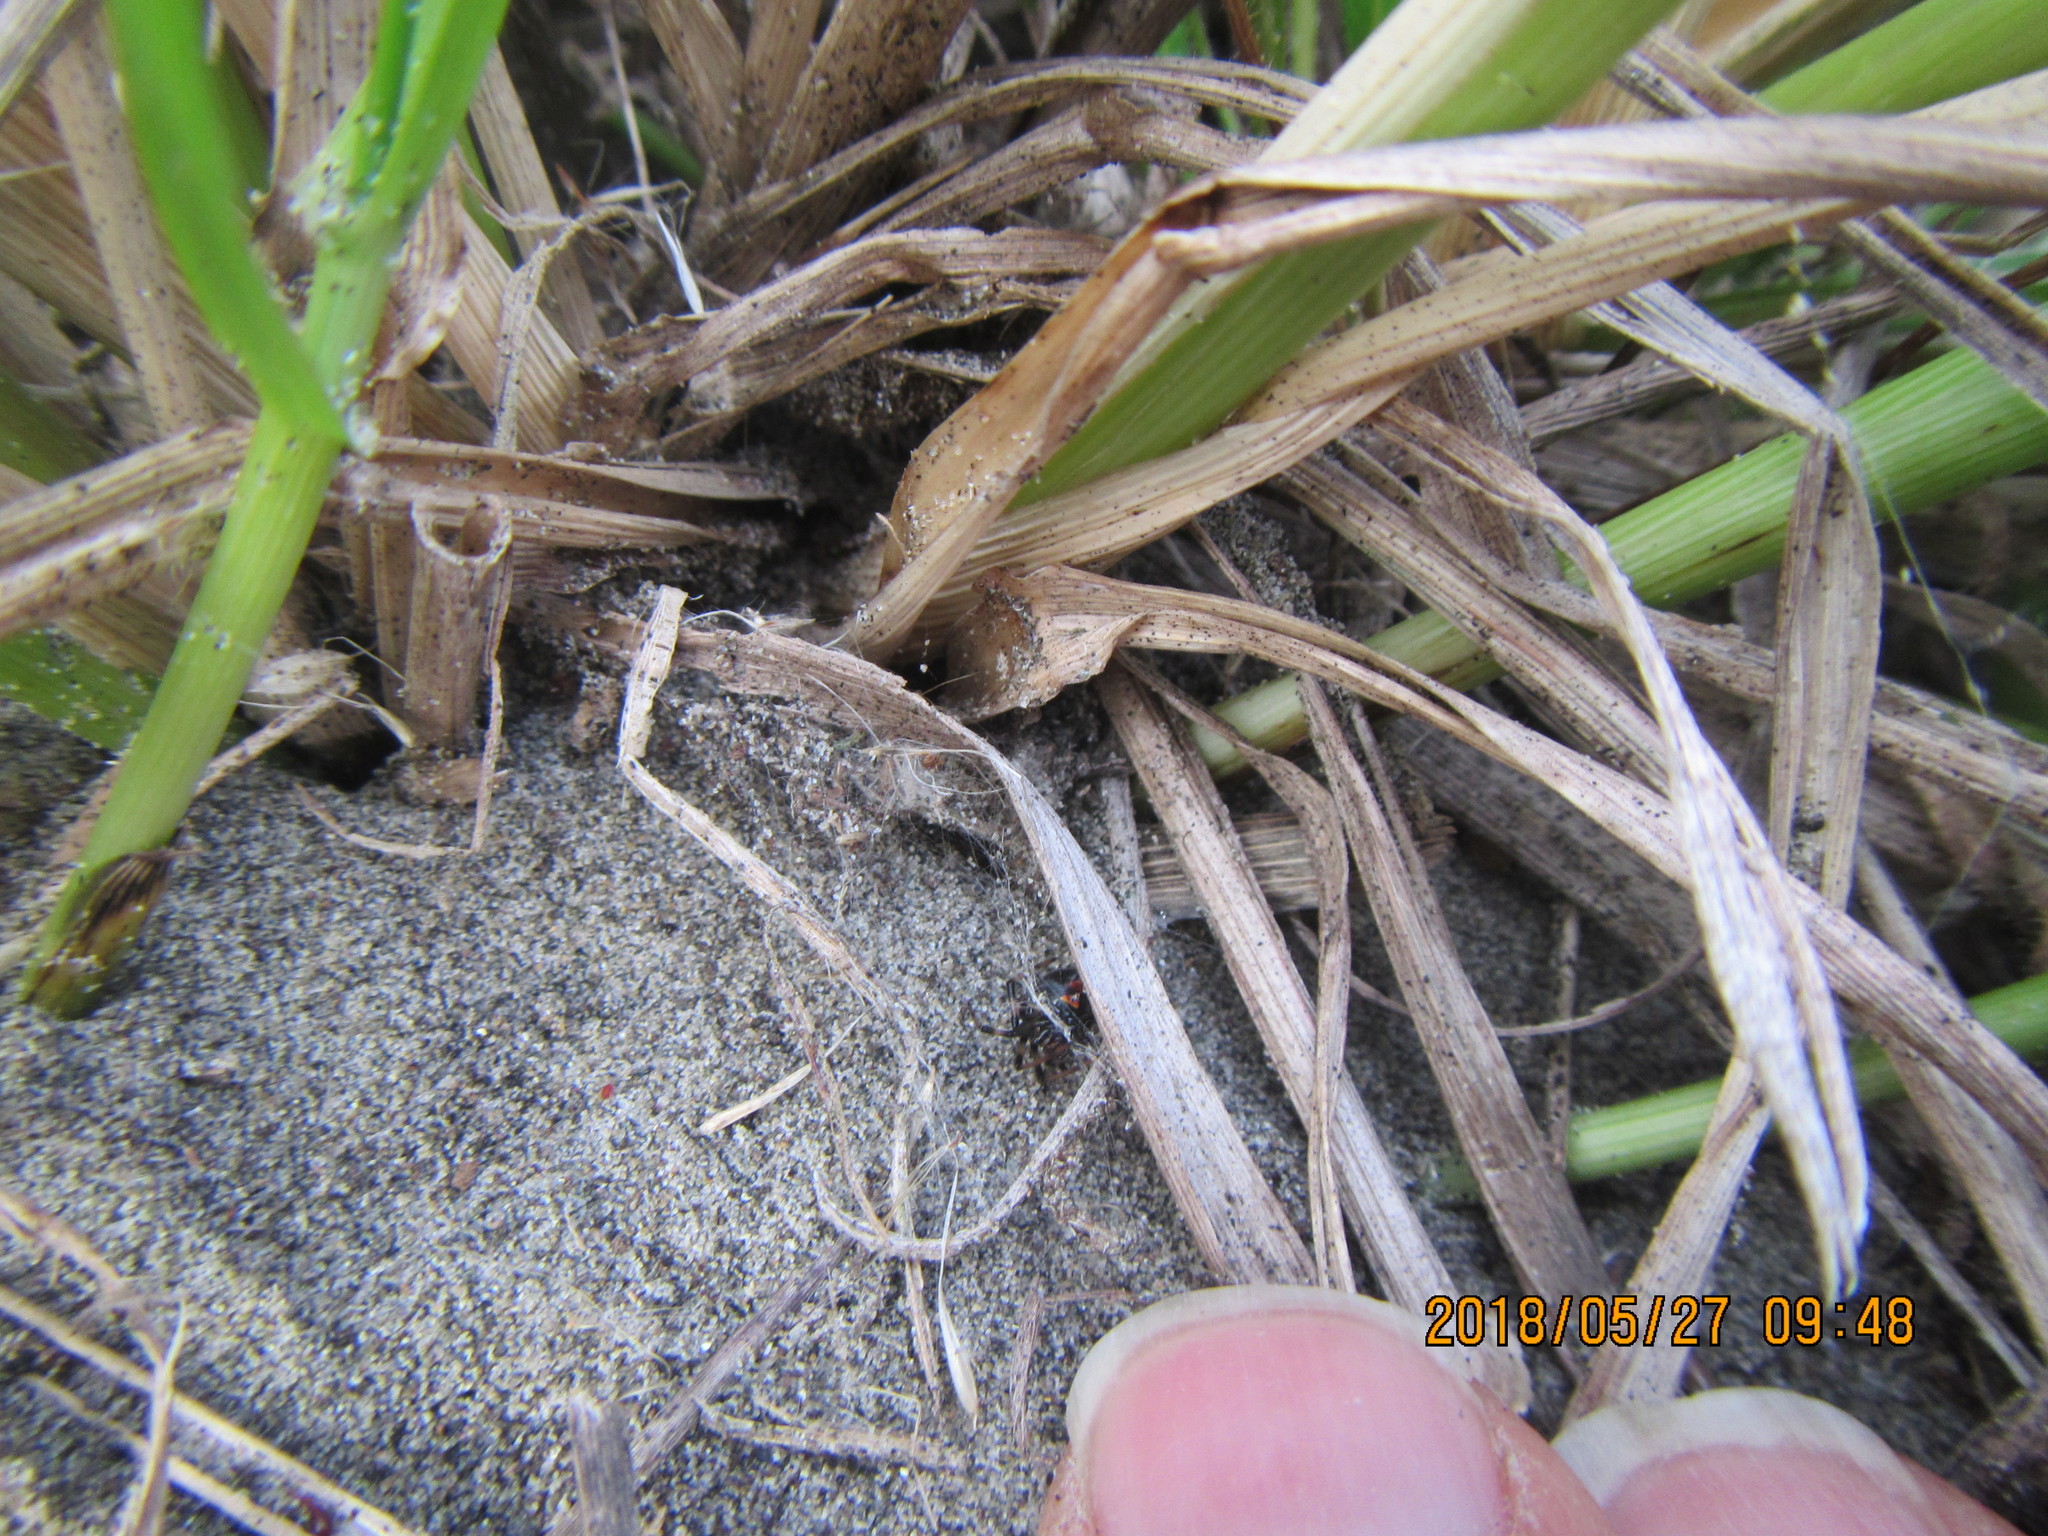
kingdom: Animalia
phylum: Arthropoda
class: Arachnida
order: Araneae
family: Theridiidae
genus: Latrodectus
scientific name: Latrodectus katipo
